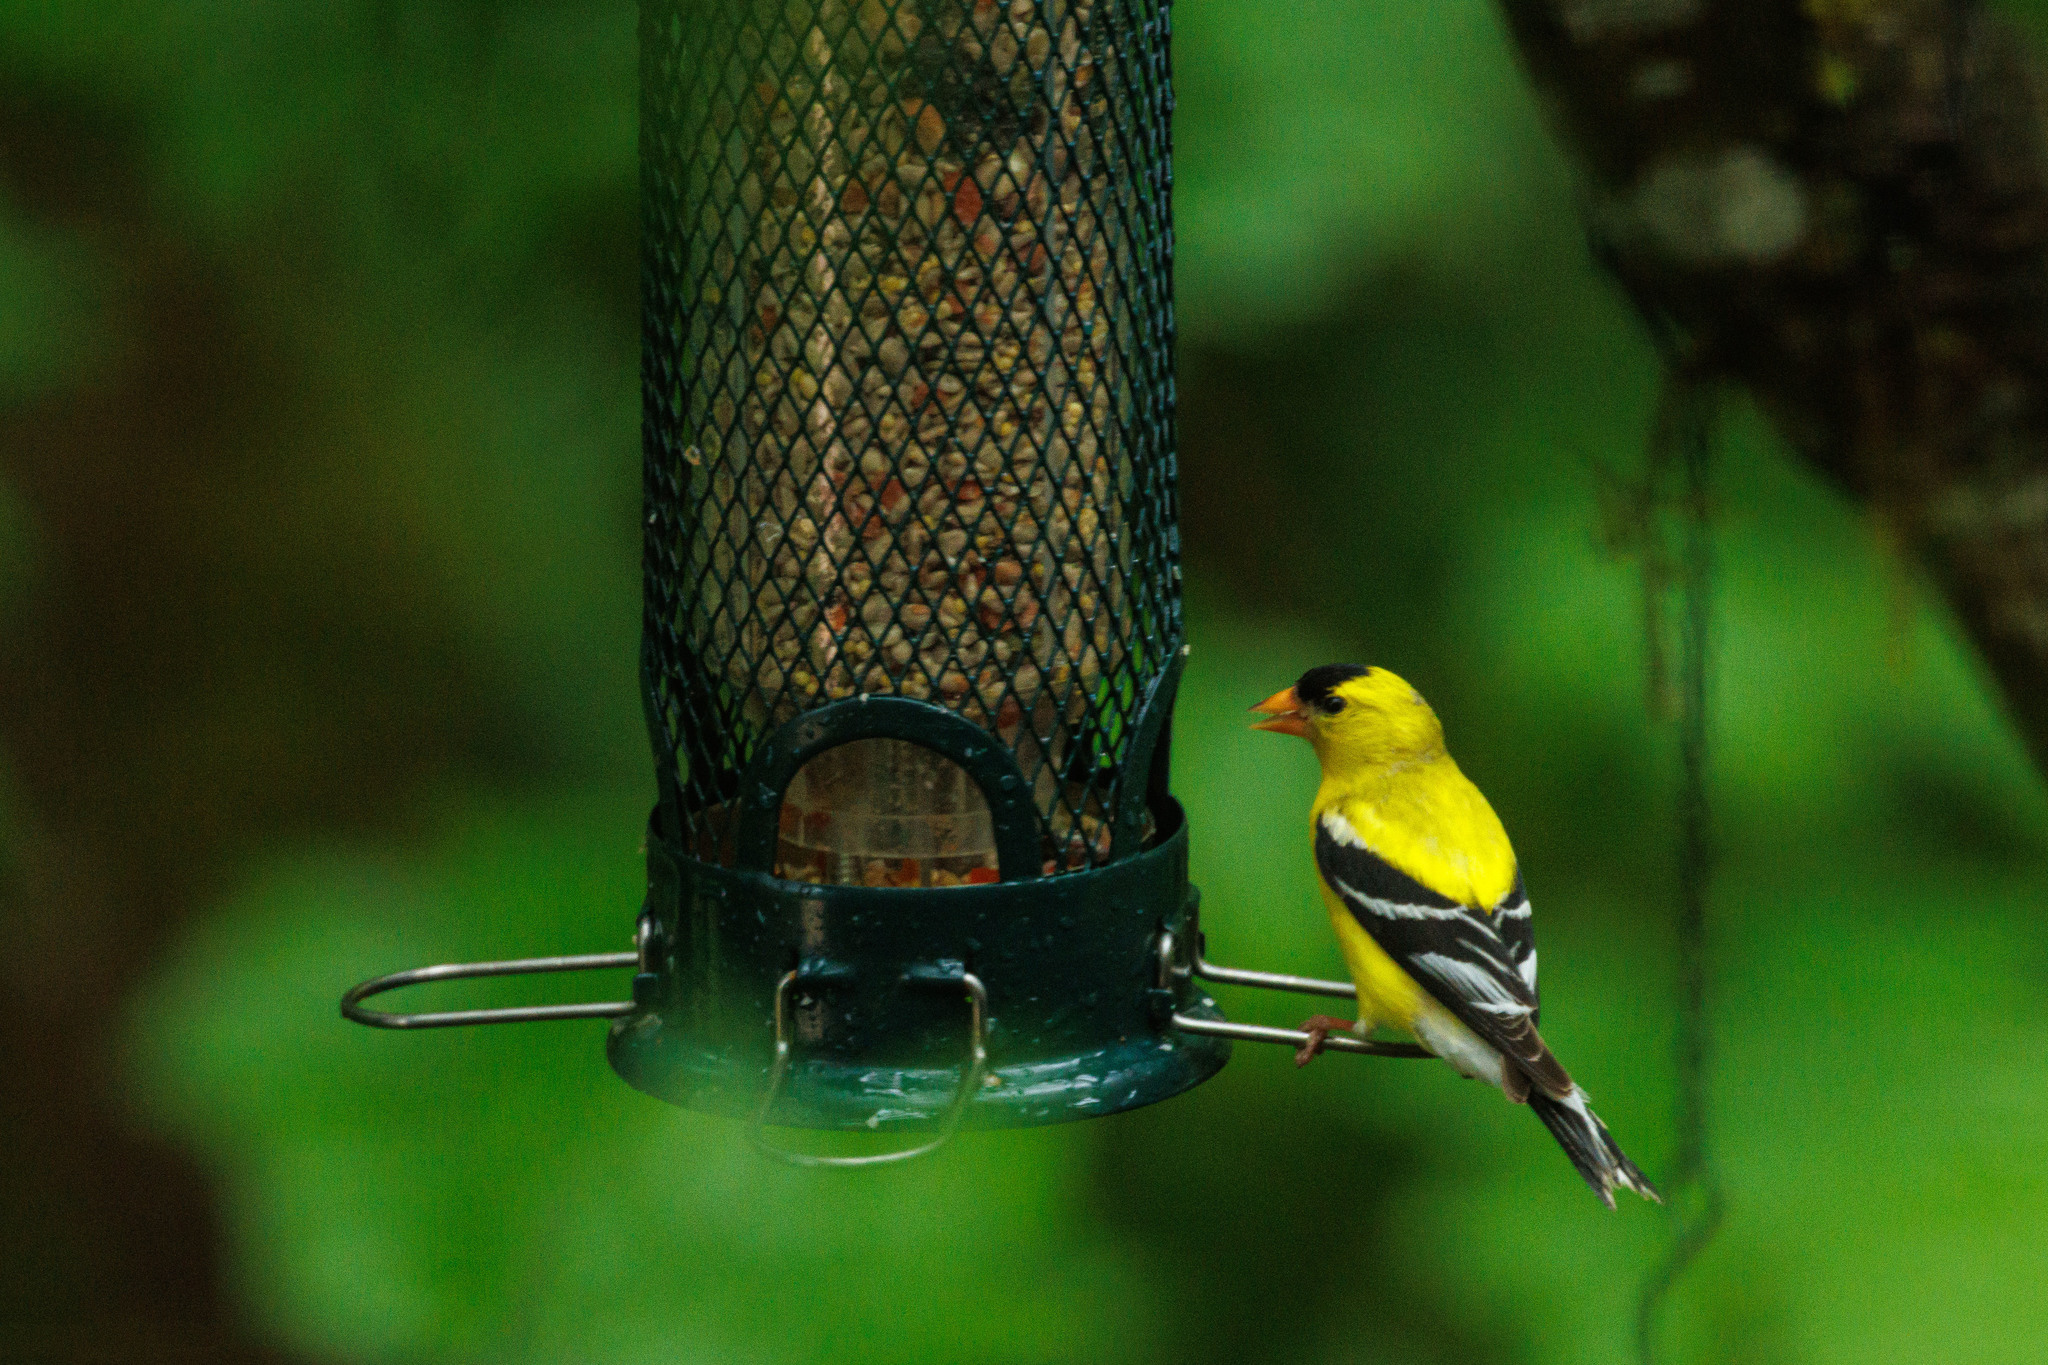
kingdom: Animalia
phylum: Chordata
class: Aves
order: Passeriformes
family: Fringillidae
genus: Spinus
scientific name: Spinus tristis
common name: American goldfinch
